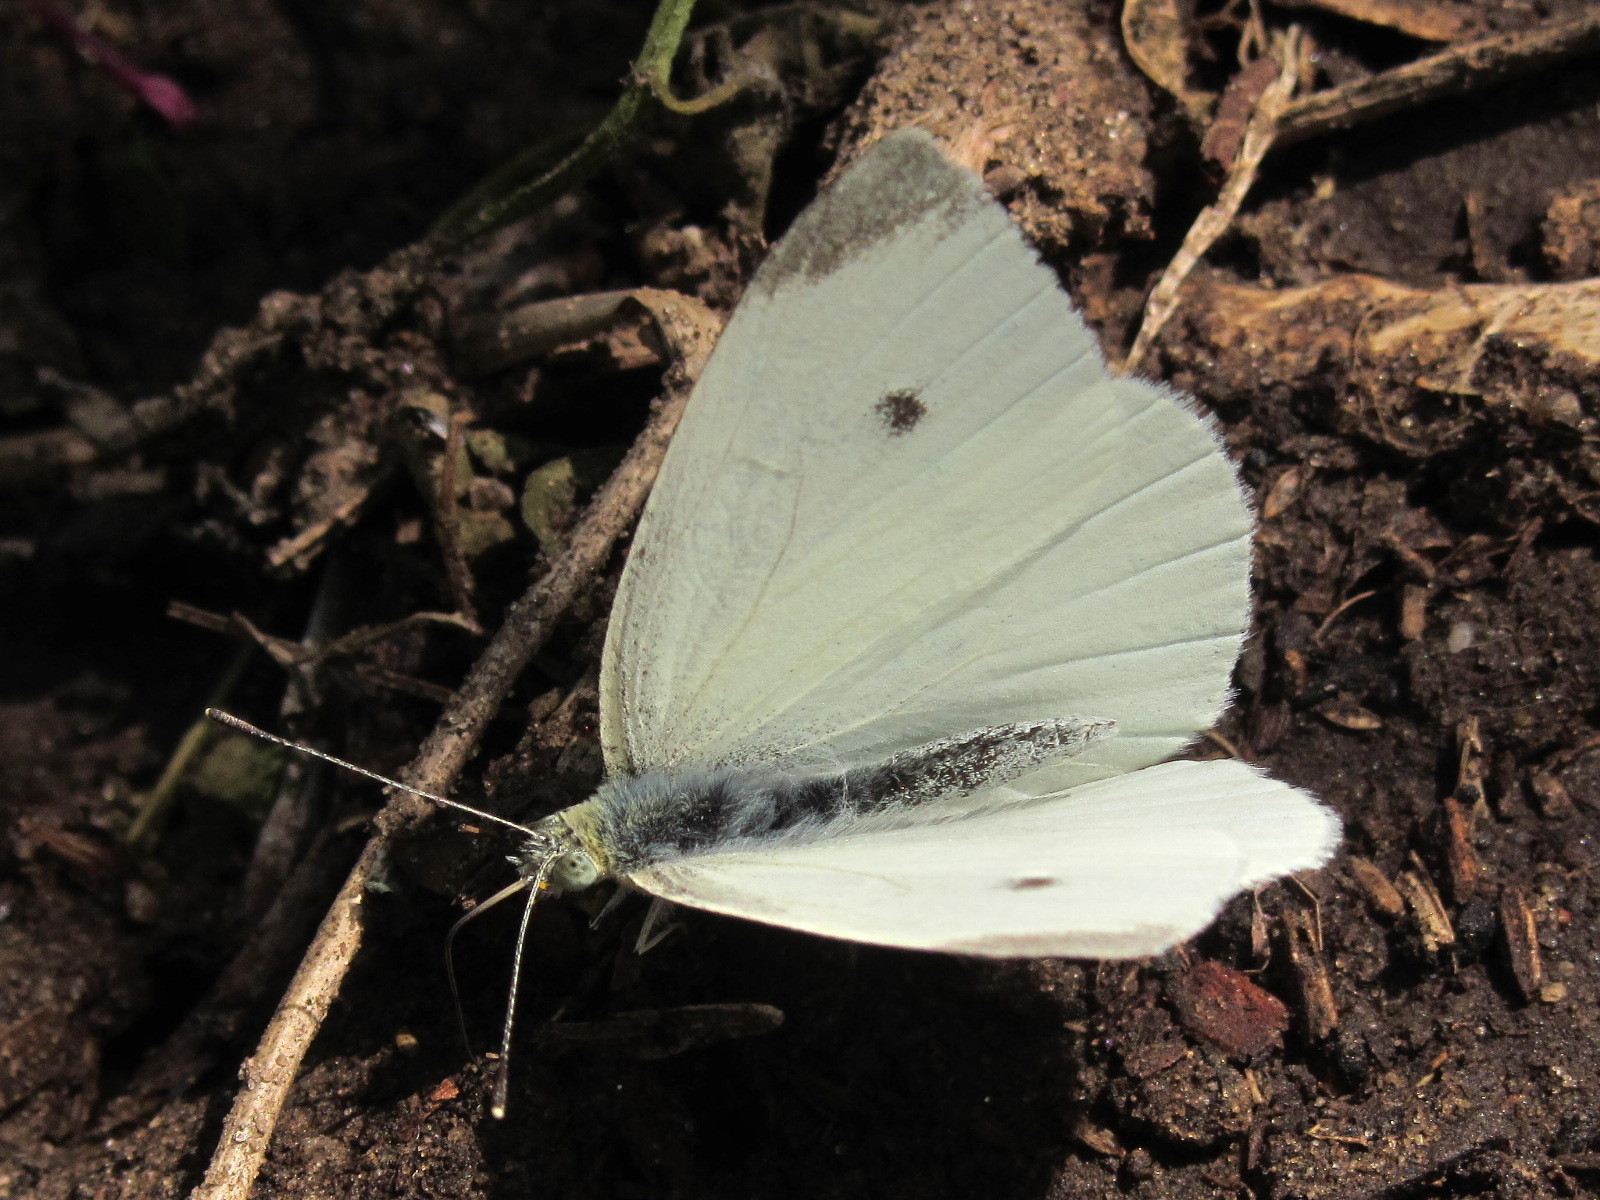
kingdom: Animalia
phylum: Arthropoda
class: Insecta
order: Lepidoptera
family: Pieridae
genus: Pieris
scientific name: Pieris rapae
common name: Small white
